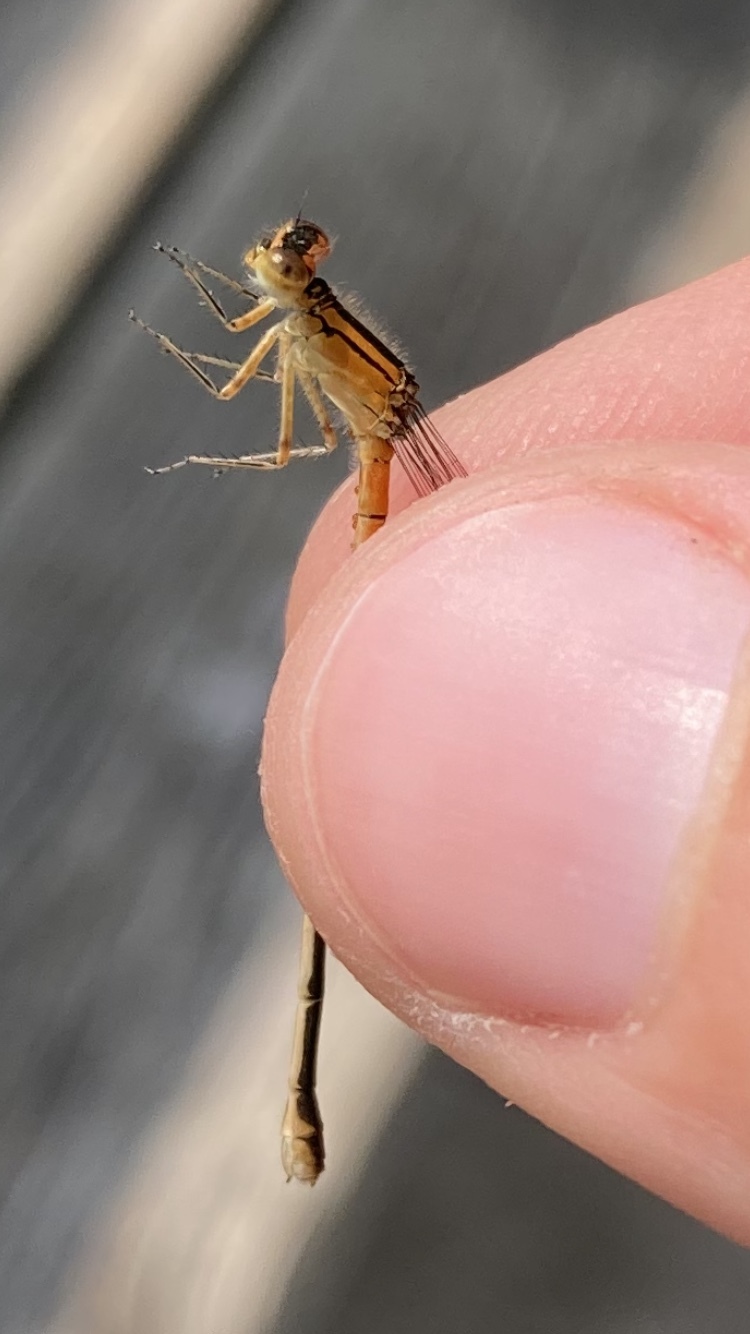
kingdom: Animalia
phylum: Arthropoda
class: Insecta
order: Odonata
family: Coenagrionidae
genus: Ischnura
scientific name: Ischnura verticalis
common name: Eastern forktail
